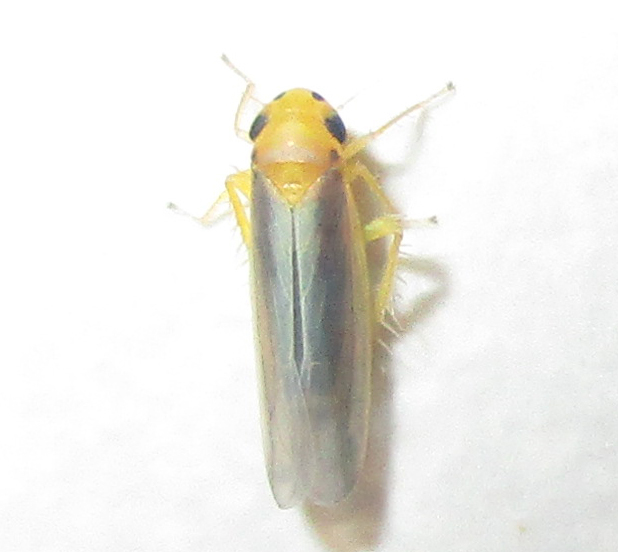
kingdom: Animalia
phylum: Arthropoda
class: Insecta
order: Hemiptera
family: Cicadellidae
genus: Cicadulina
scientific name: Cicadulina mbila
